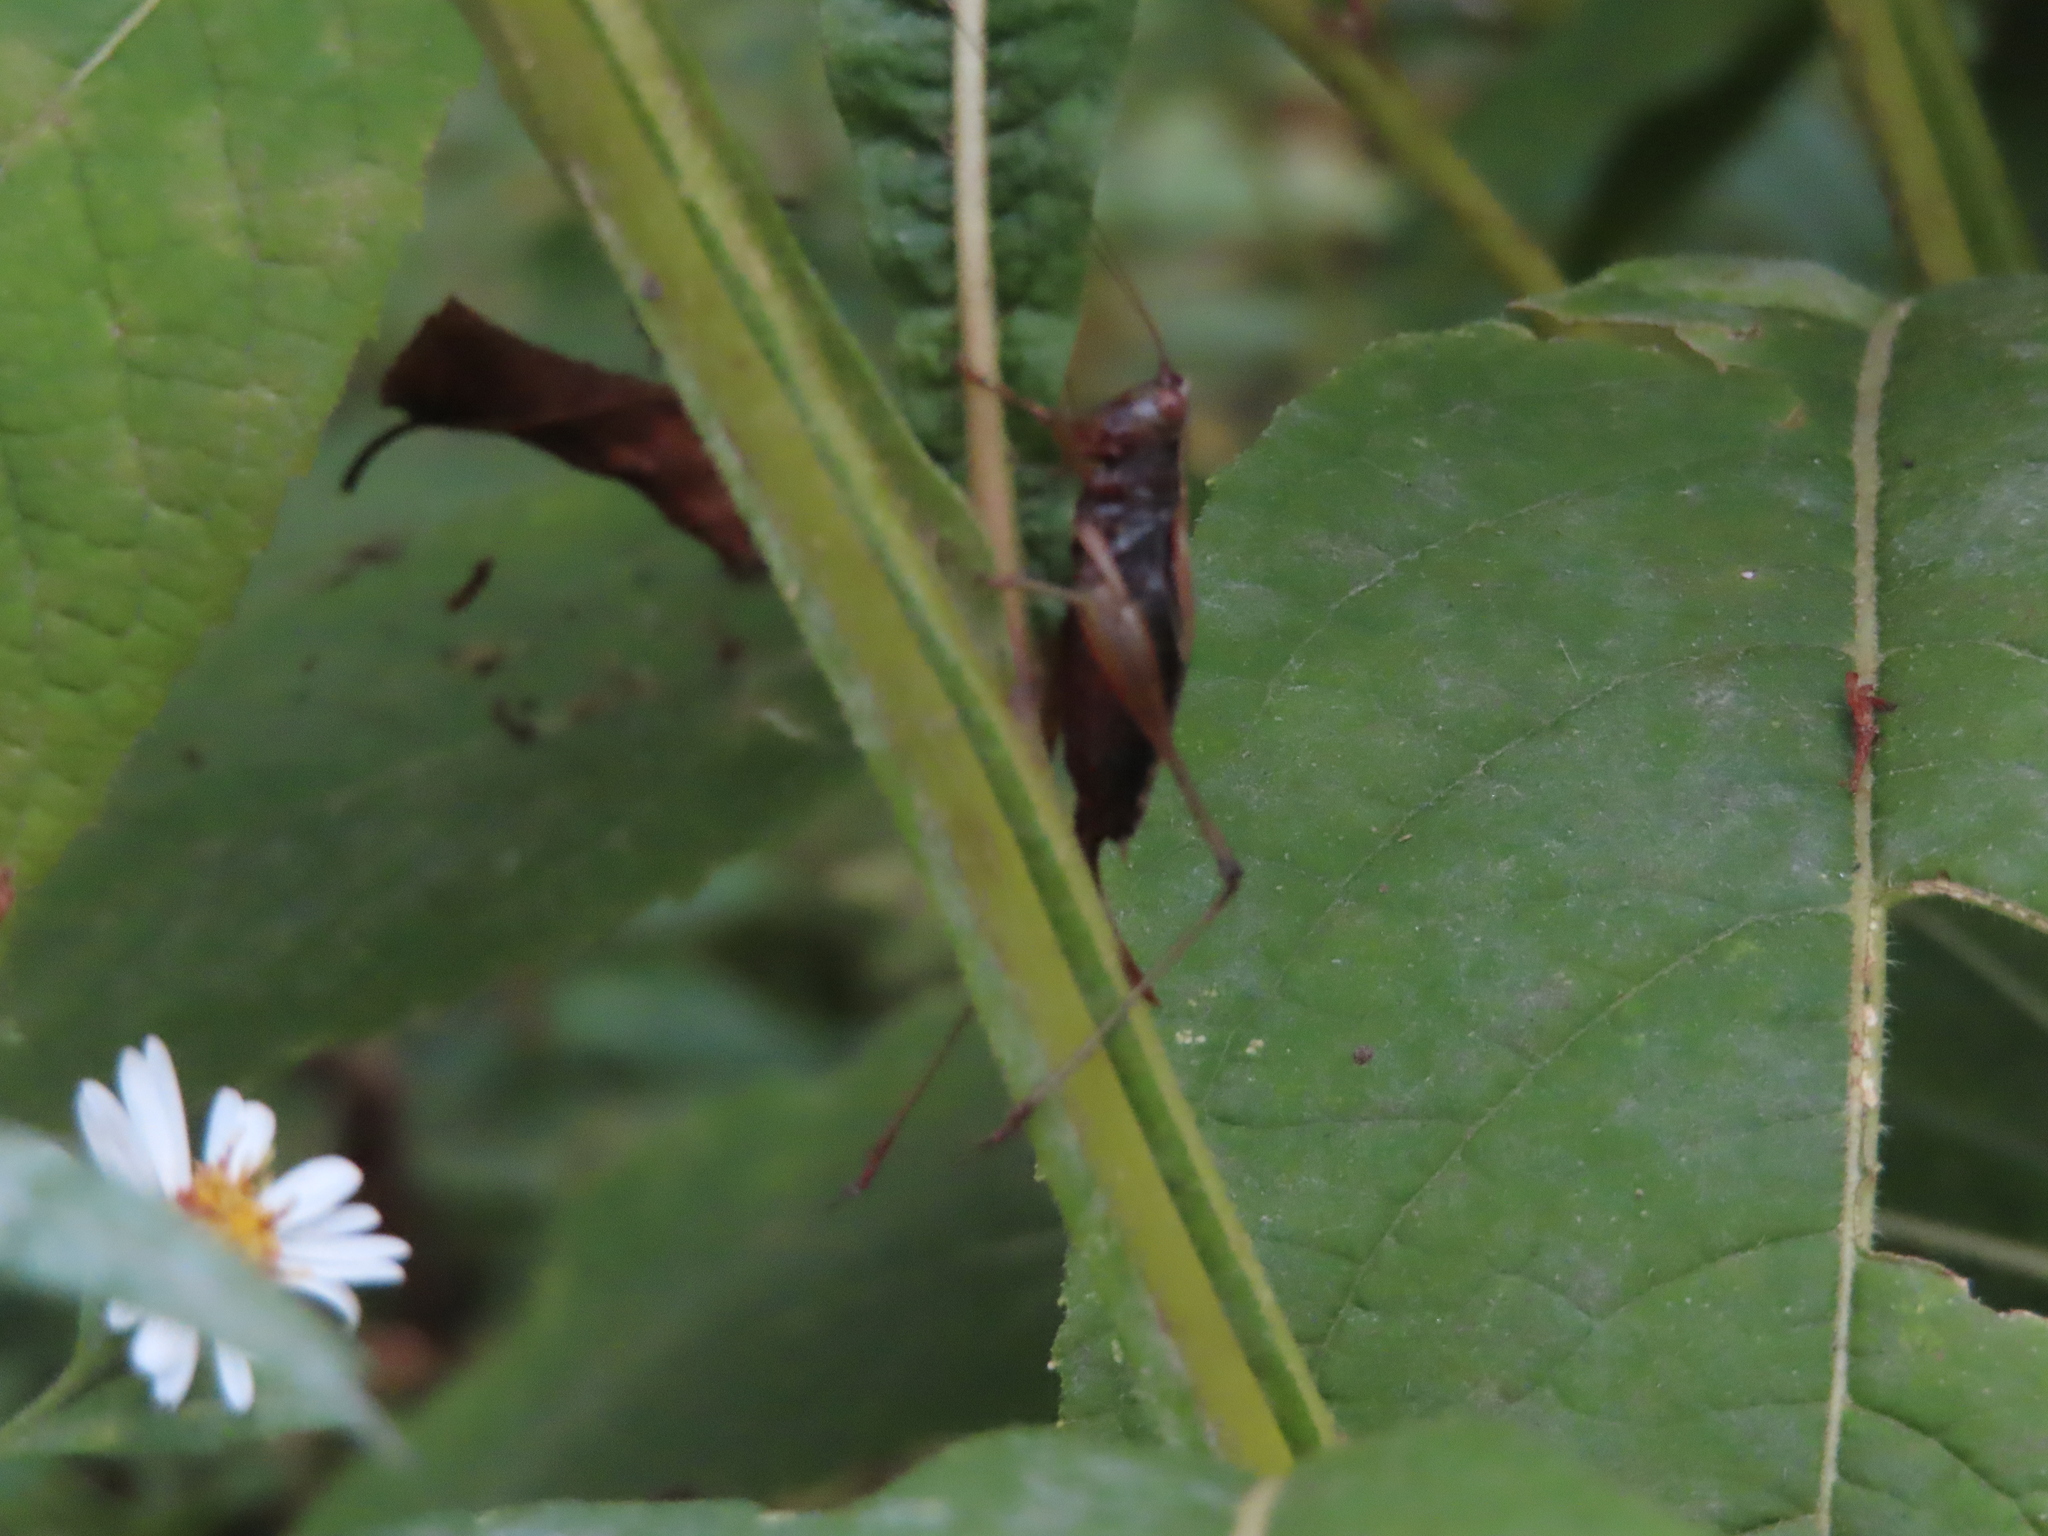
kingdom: Animalia
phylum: Arthropoda
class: Insecta
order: Orthoptera
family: Tettigoniidae
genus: Conocephalus
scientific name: Conocephalus nemoralis
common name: Woodland meadow katydid
